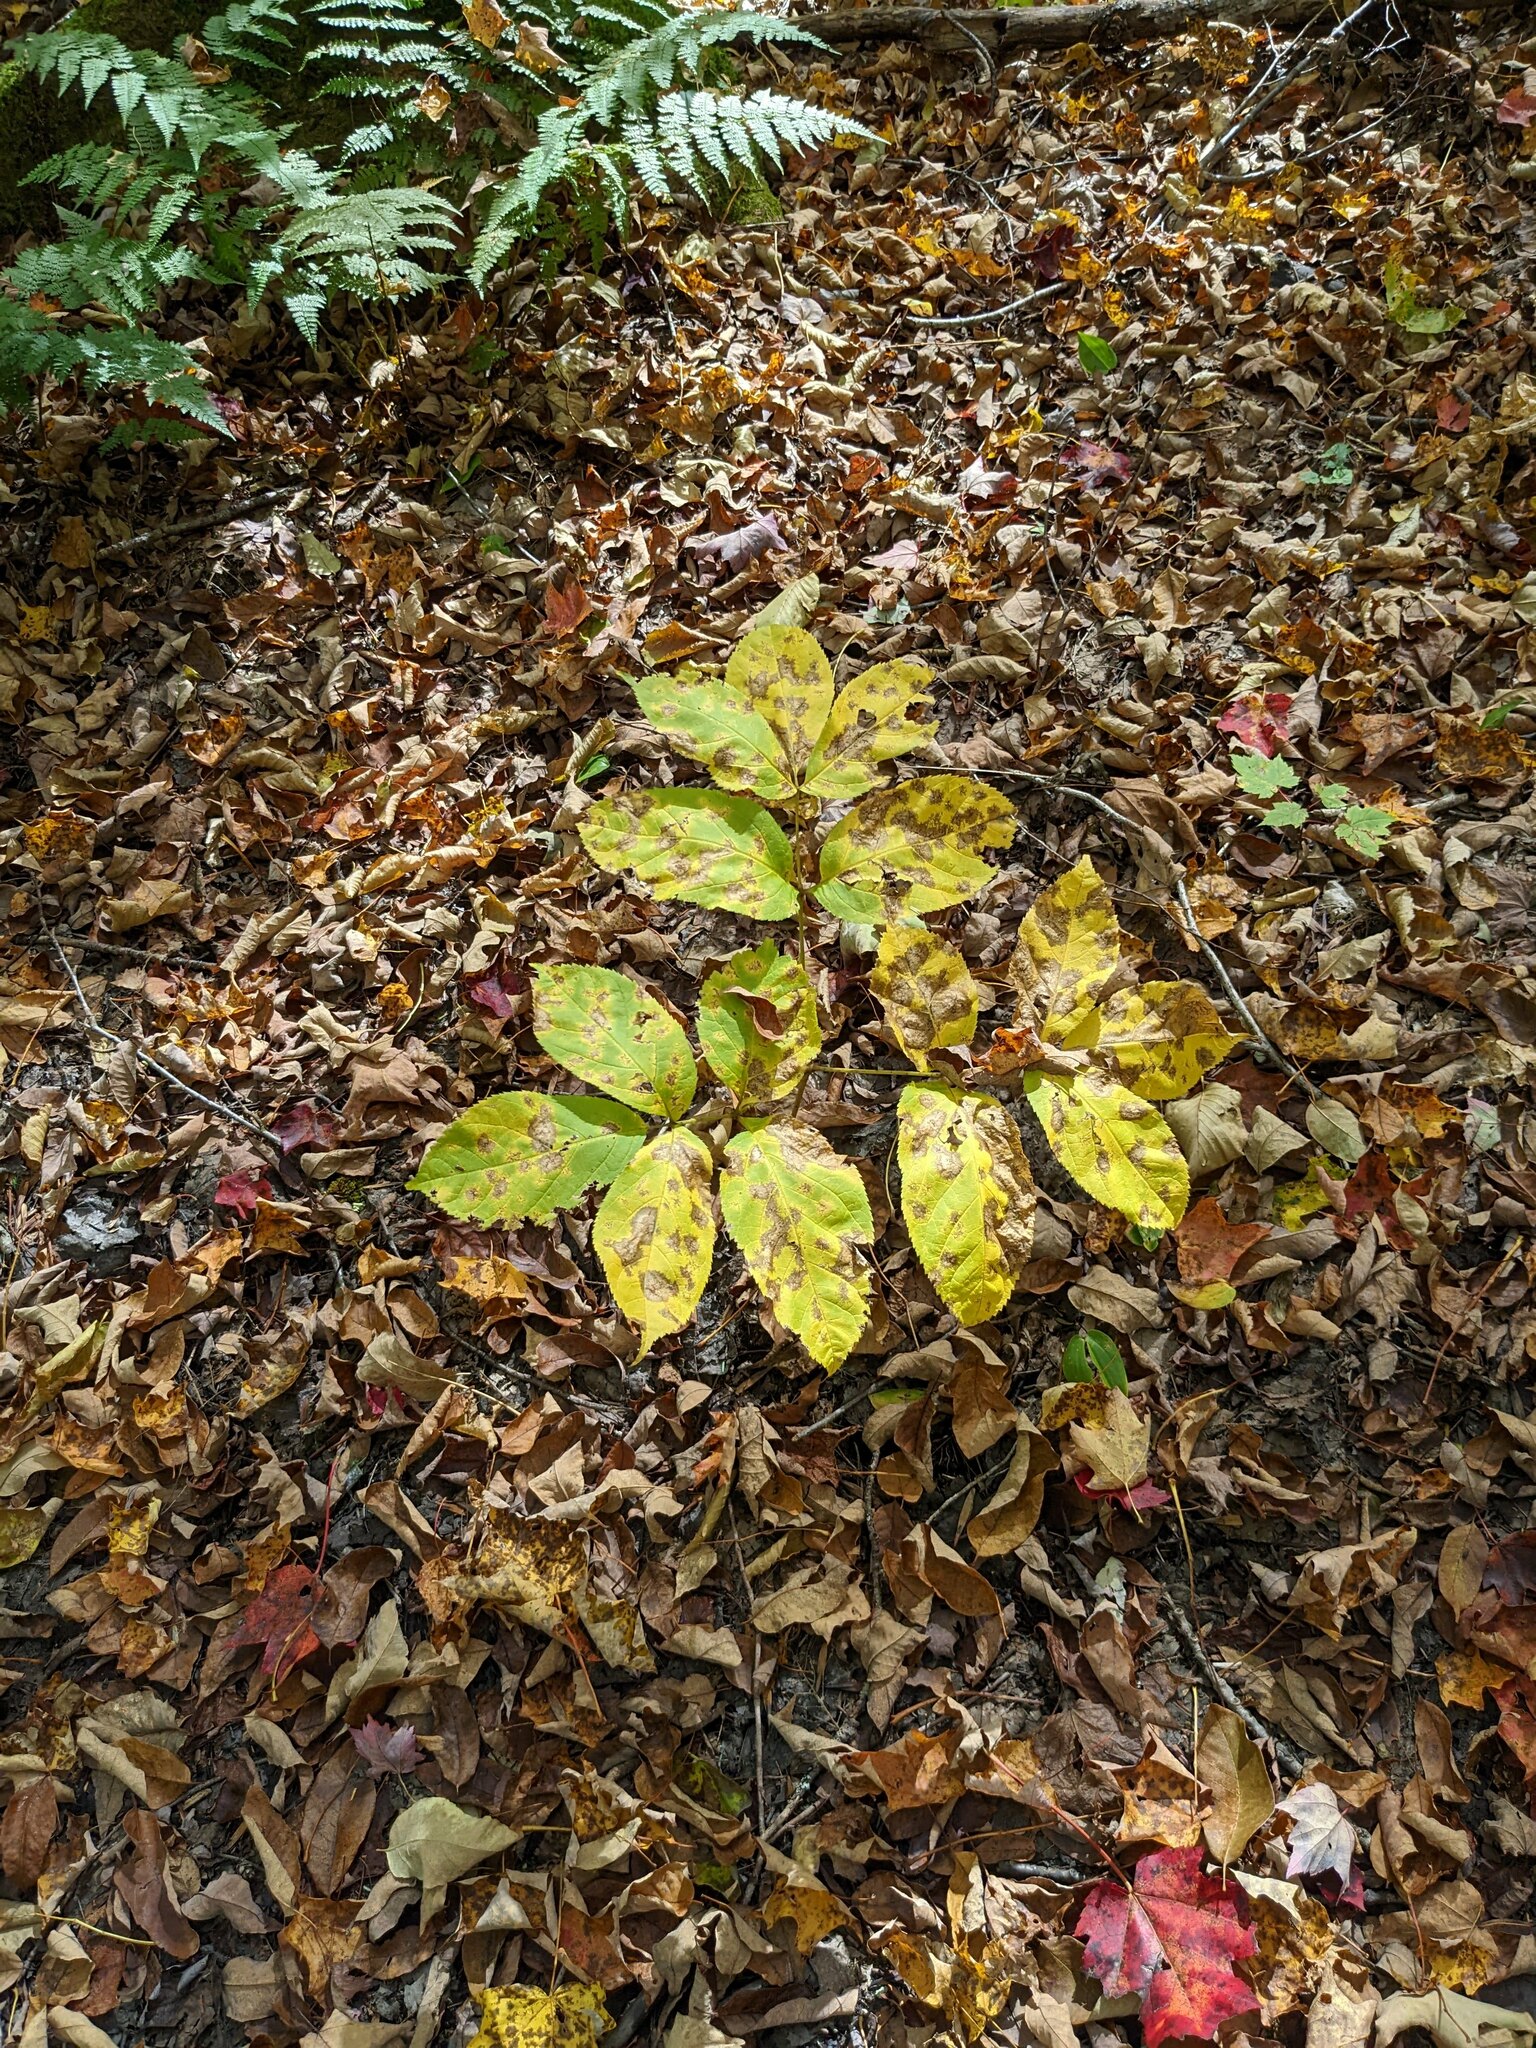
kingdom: Plantae
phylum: Tracheophyta
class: Magnoliopsida
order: Apiales
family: Araliaceae
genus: Aralia
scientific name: Aralia nudicaulis
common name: Wild sarsaparilla
